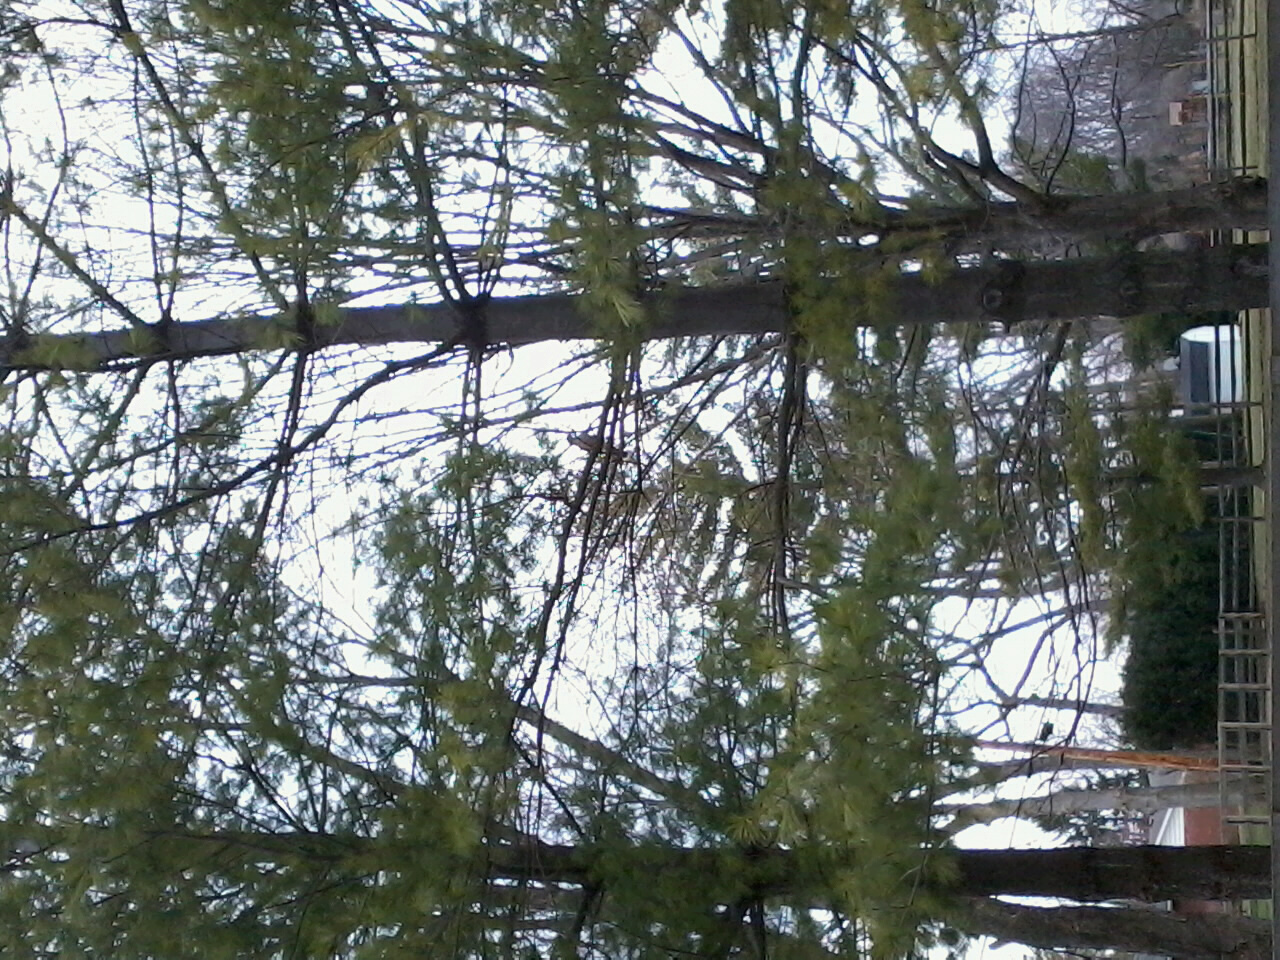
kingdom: Animalia
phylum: Chordata
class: Aves
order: Accipitriformes
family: Accipitridae
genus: Accipiter
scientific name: Accipiter cooperii
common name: Cooper's hawk
